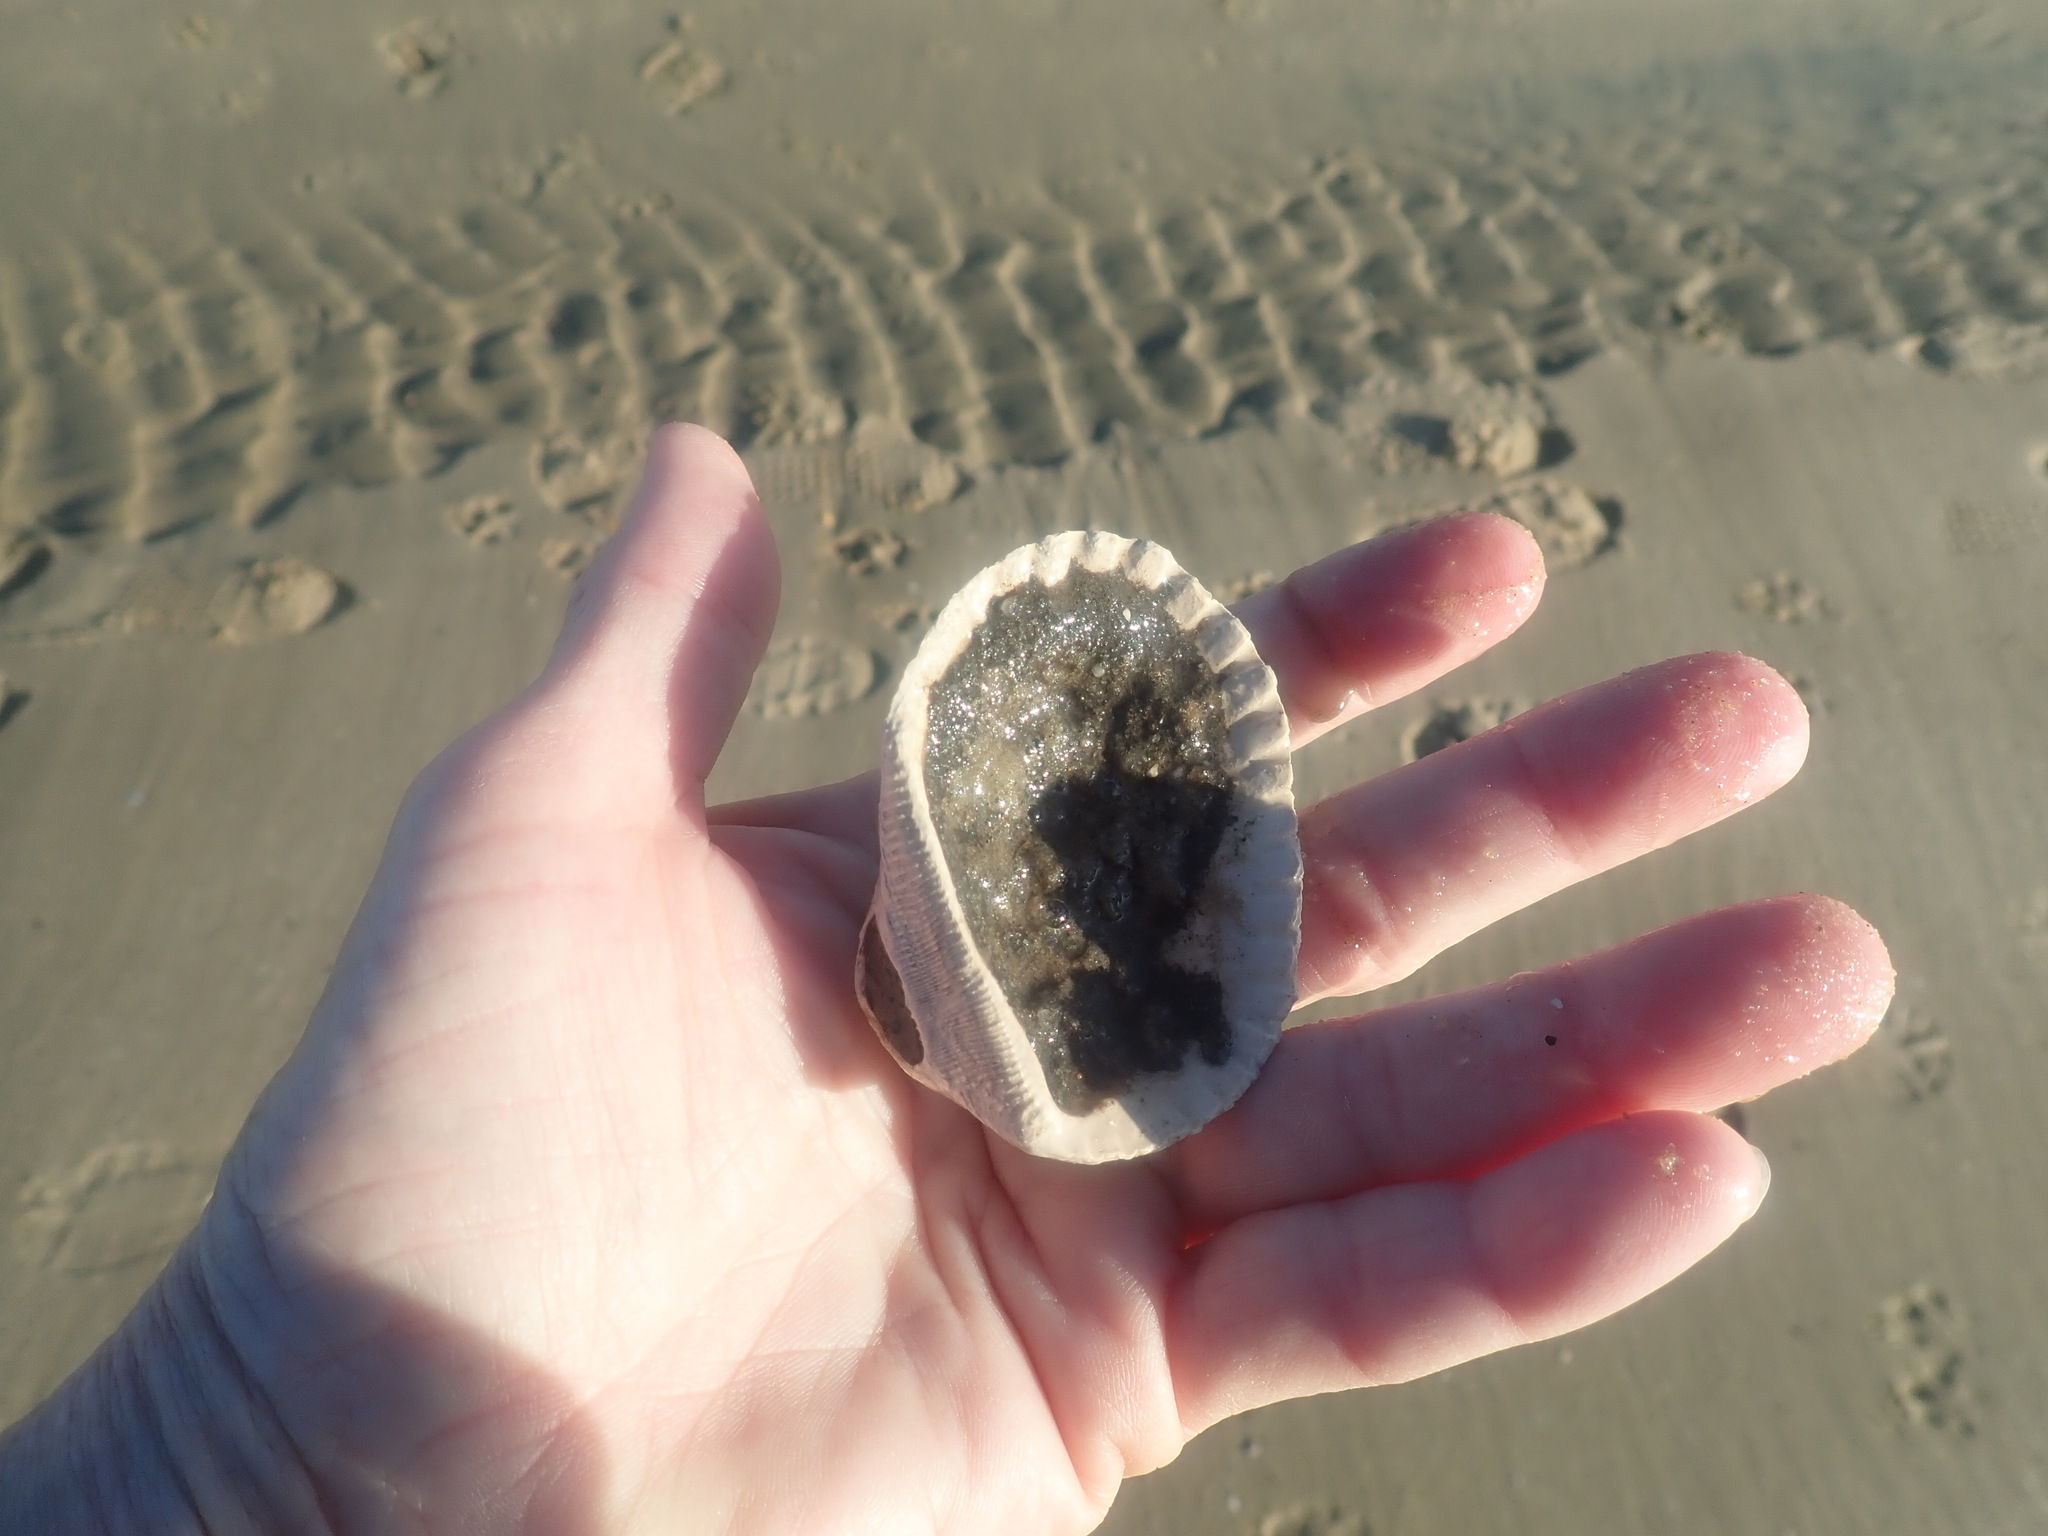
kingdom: Animalia
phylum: Mollusca
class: Bivalvia
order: Arcida
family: Arcidae
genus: Anadara
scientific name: Anadara trapezia
